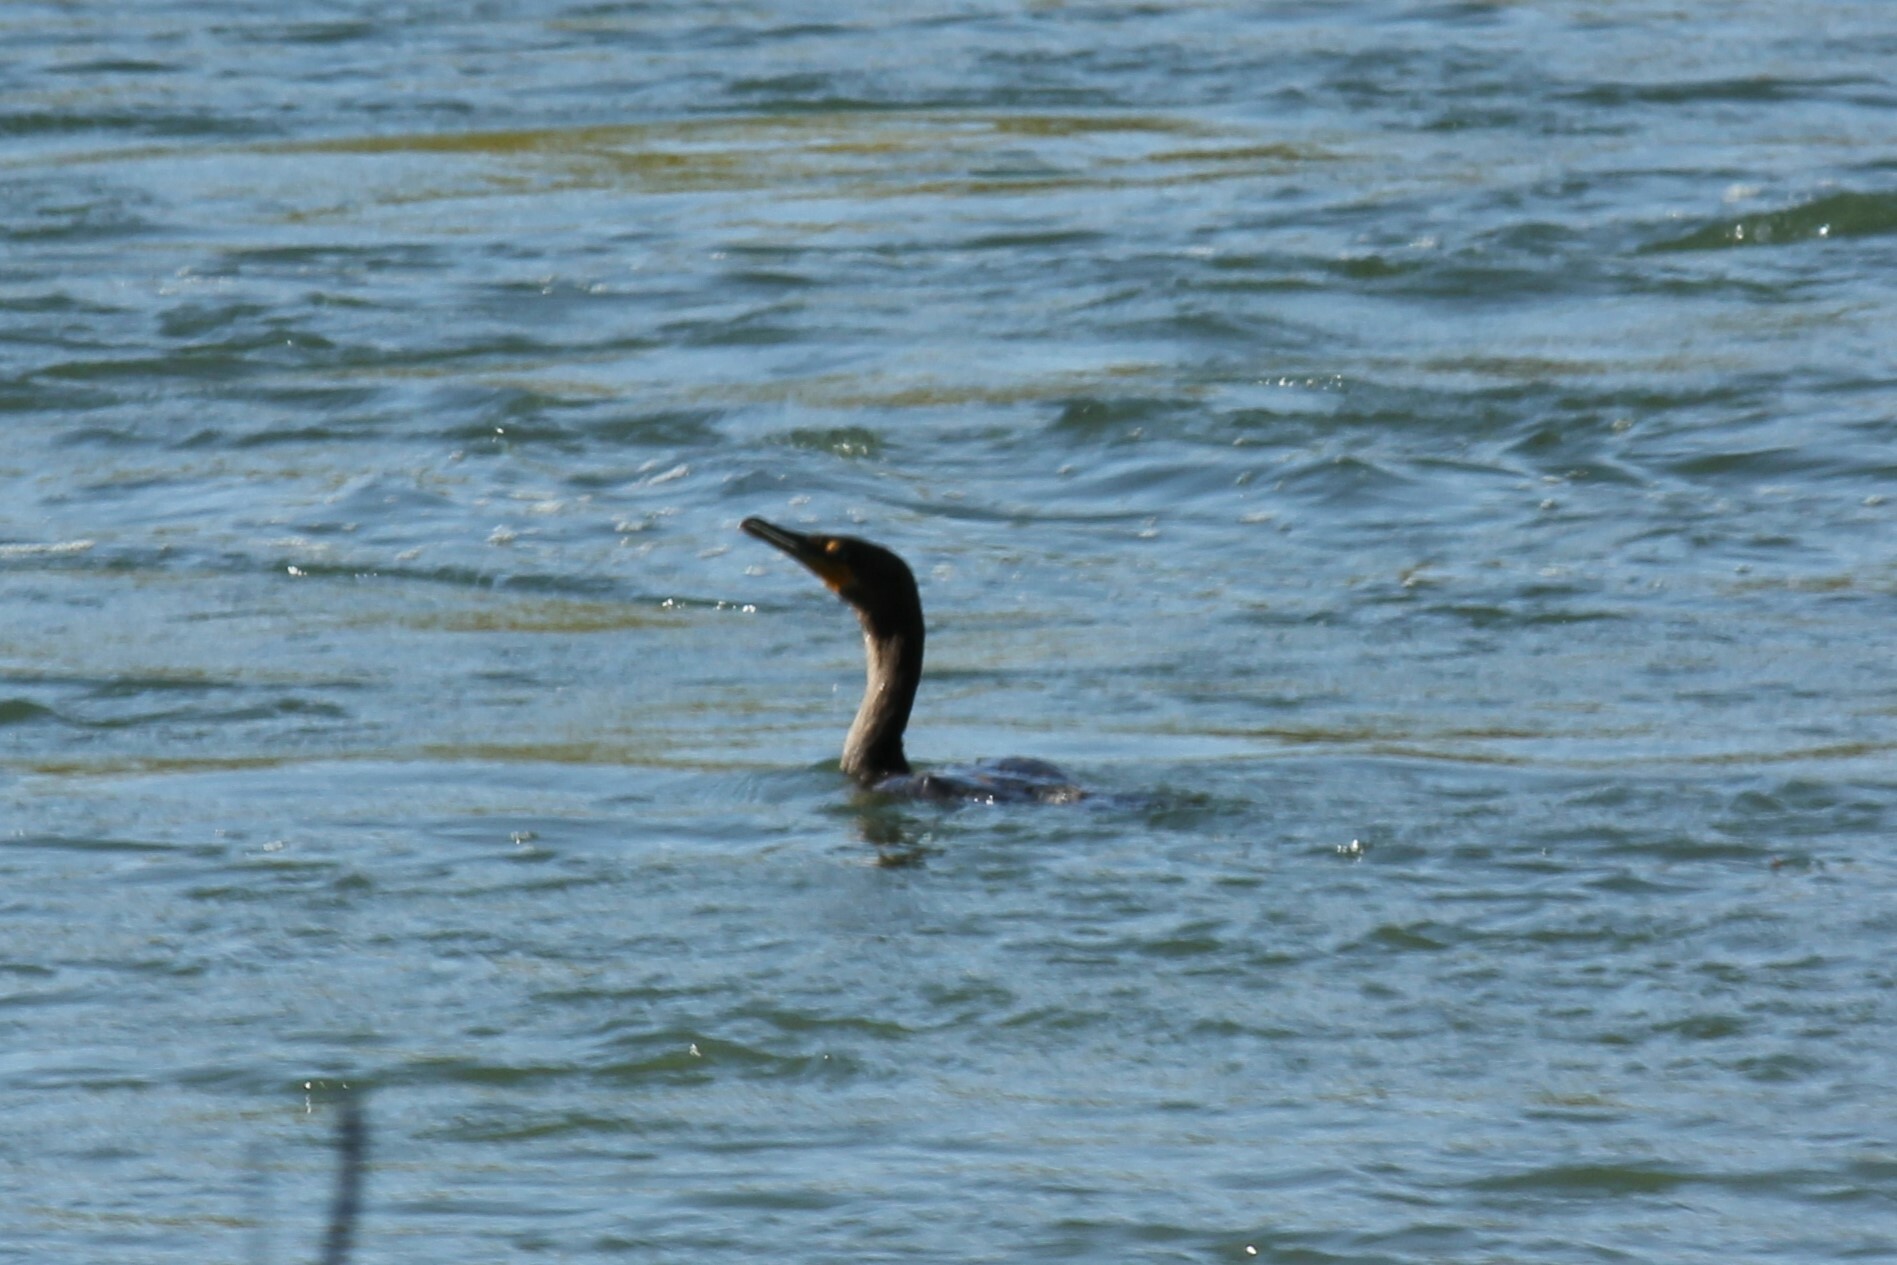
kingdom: Animalia
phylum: Chordata
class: Aves
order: Suliformes
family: Phalacrocoracidae
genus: Phalacrocorax
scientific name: Phalacrocorax auritus
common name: Double-crested cormorant
